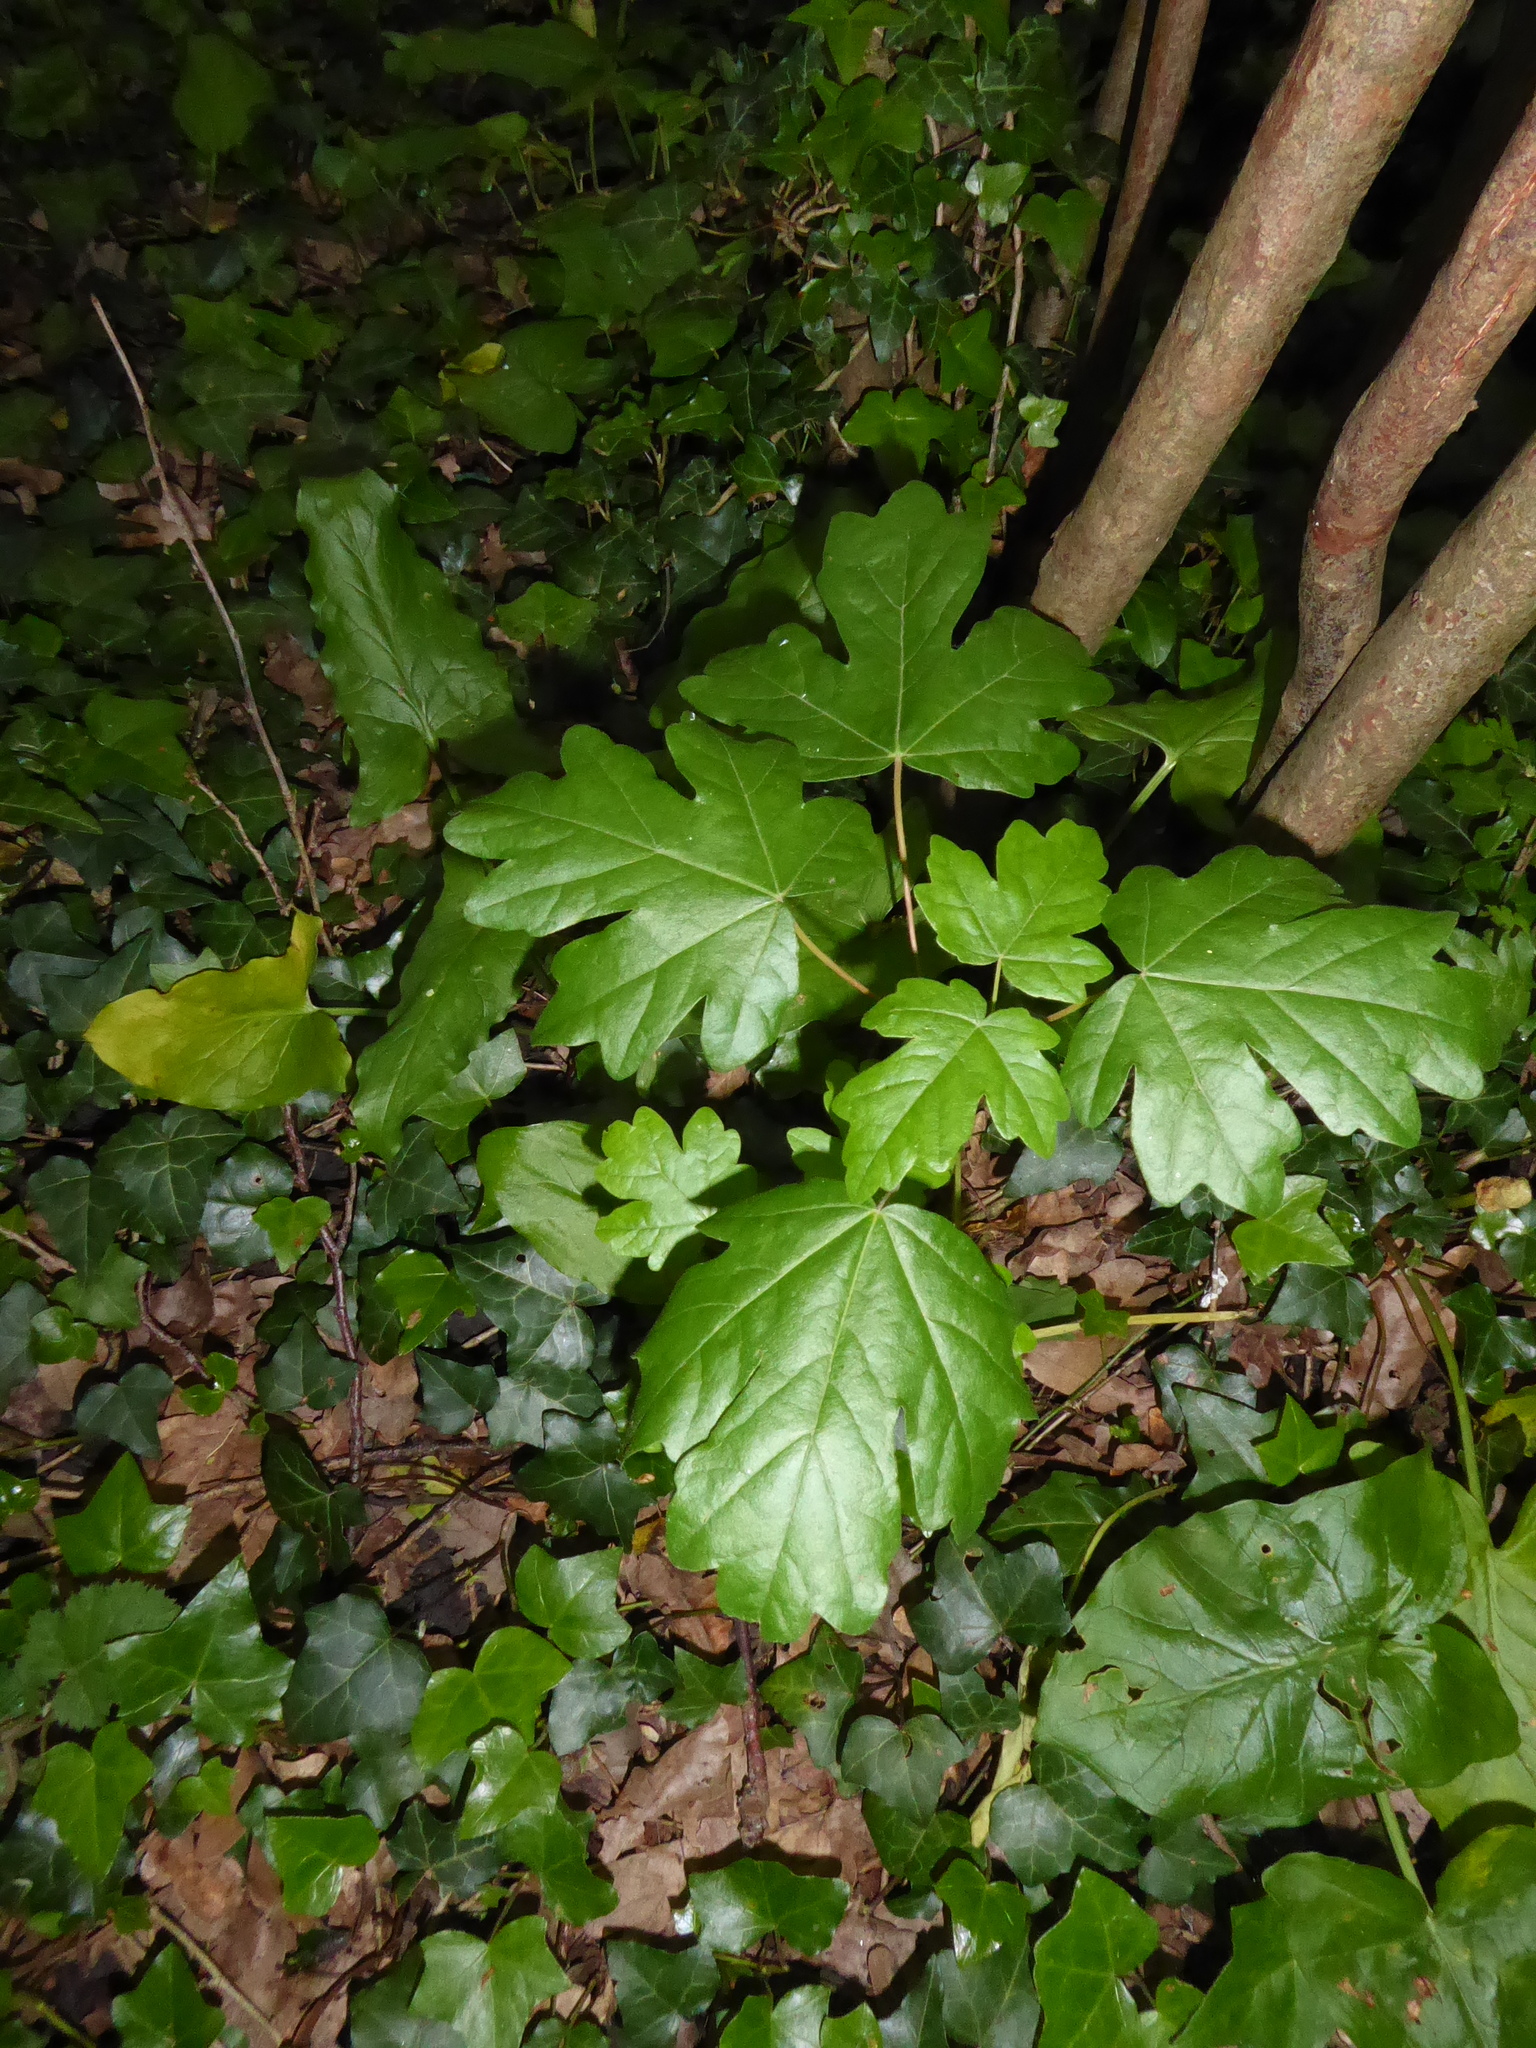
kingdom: Plantae
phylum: Tracheophyta
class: Magnoliopsida
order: Sapindales
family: Sapindaceae
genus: Acer
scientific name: Acer campestre
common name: Field maple
